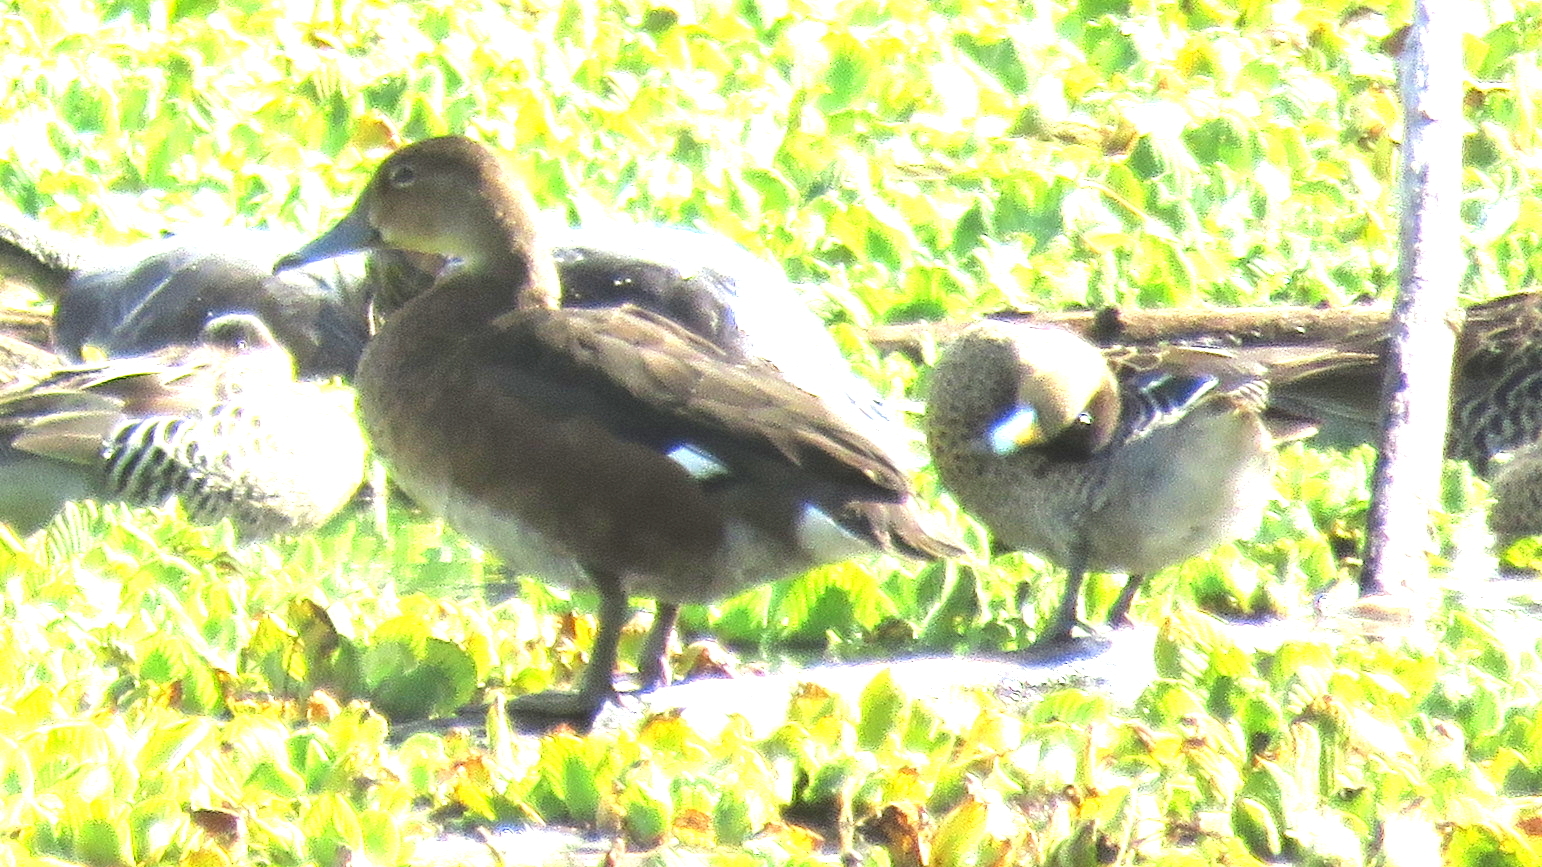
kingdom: Animalia
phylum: Chordata
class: Aves
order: Anseriformes
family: Anatidae
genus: Netta
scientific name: Netta peposaca
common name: Rosy-billed pochard
